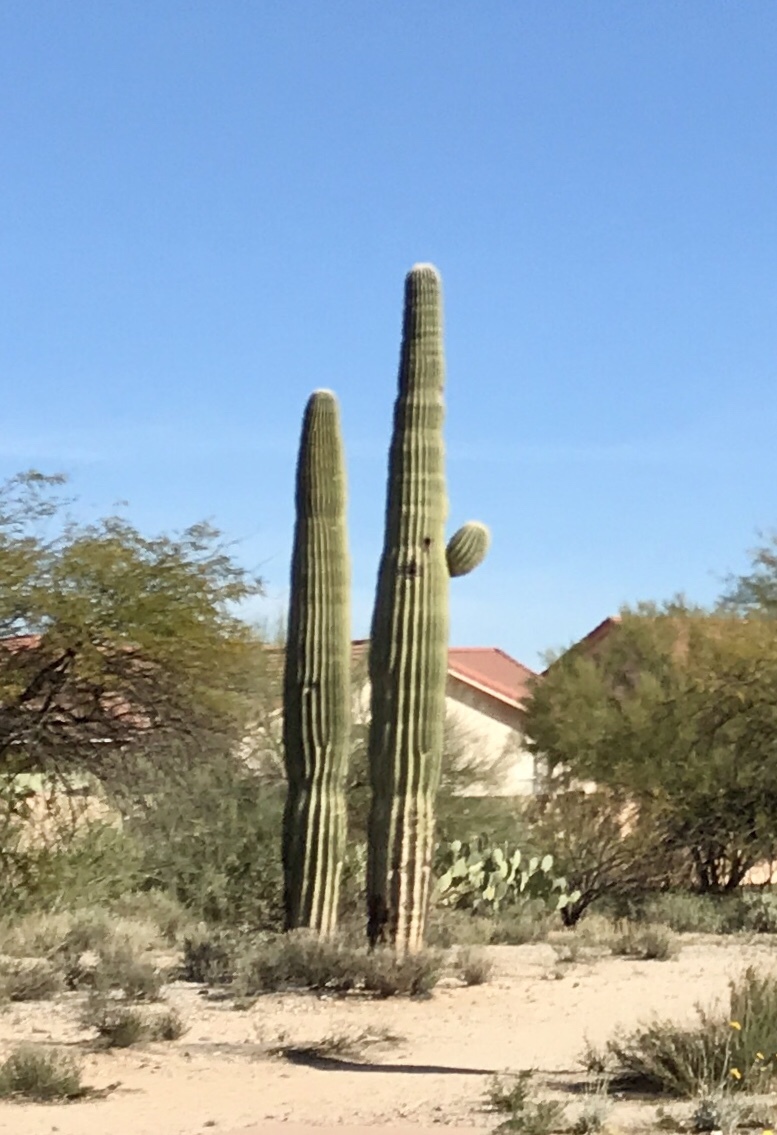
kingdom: Plantae
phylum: Tracheophyta
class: Magnoliopsida
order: Caryophyllales
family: Cactaceae
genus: Carnegiea
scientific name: Carnegiea gigantea
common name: Saguaro
